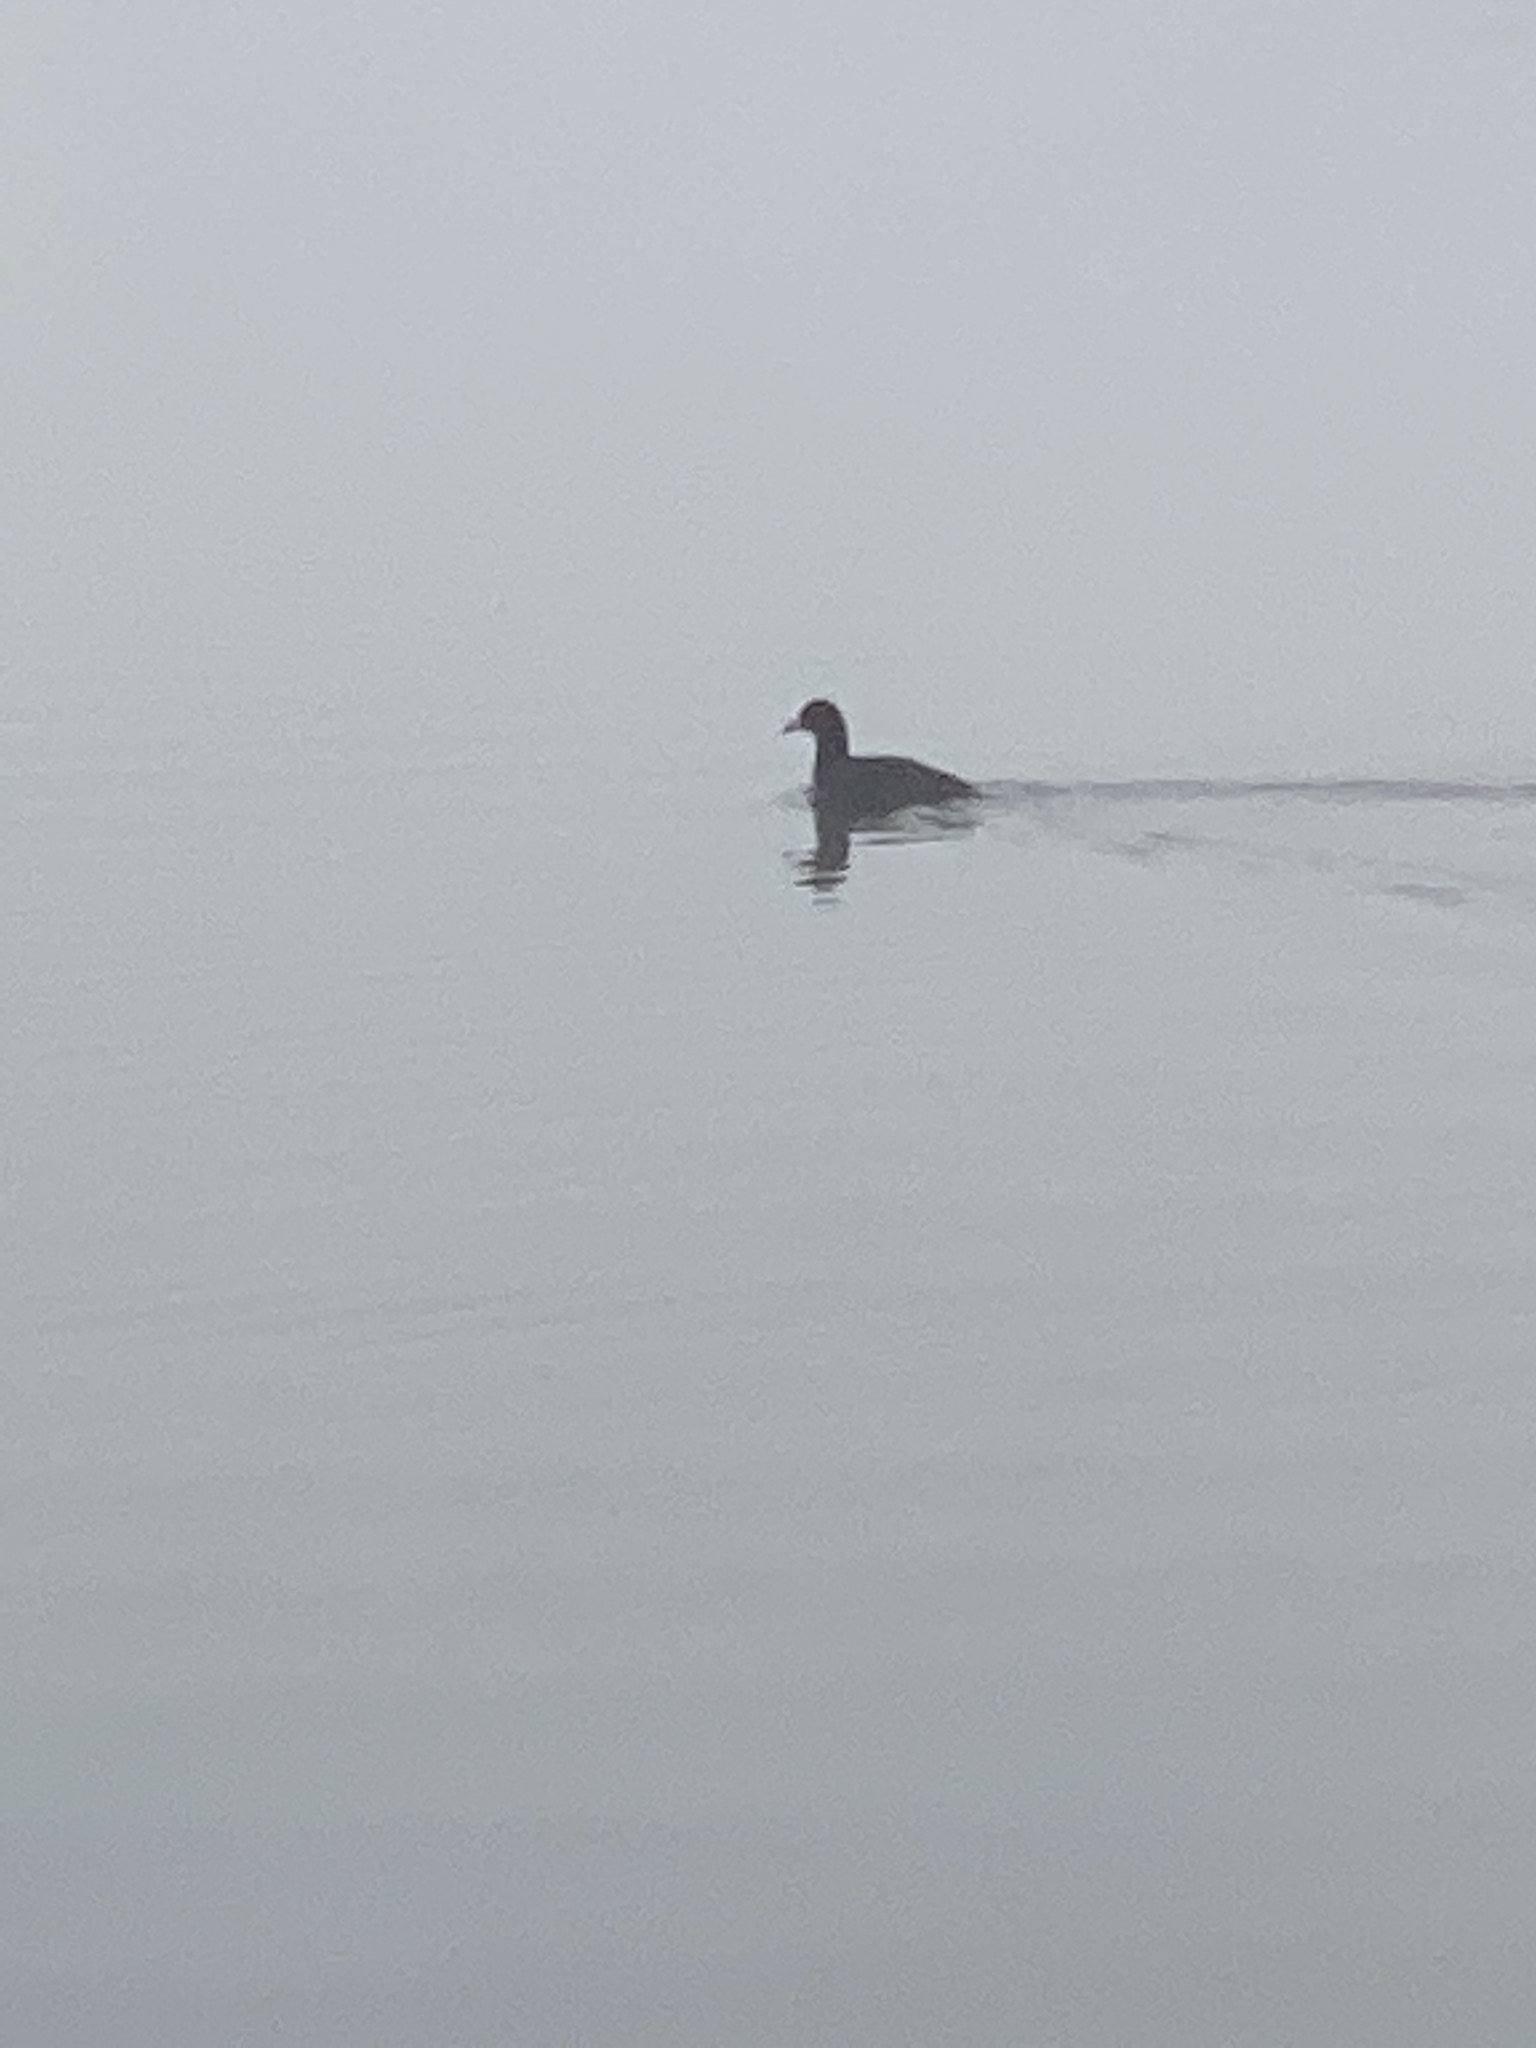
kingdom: Animalia
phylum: Chordata
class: Aves
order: Gruiformes
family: Rallidae
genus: Fulica
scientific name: Fulica americana
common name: American coot
